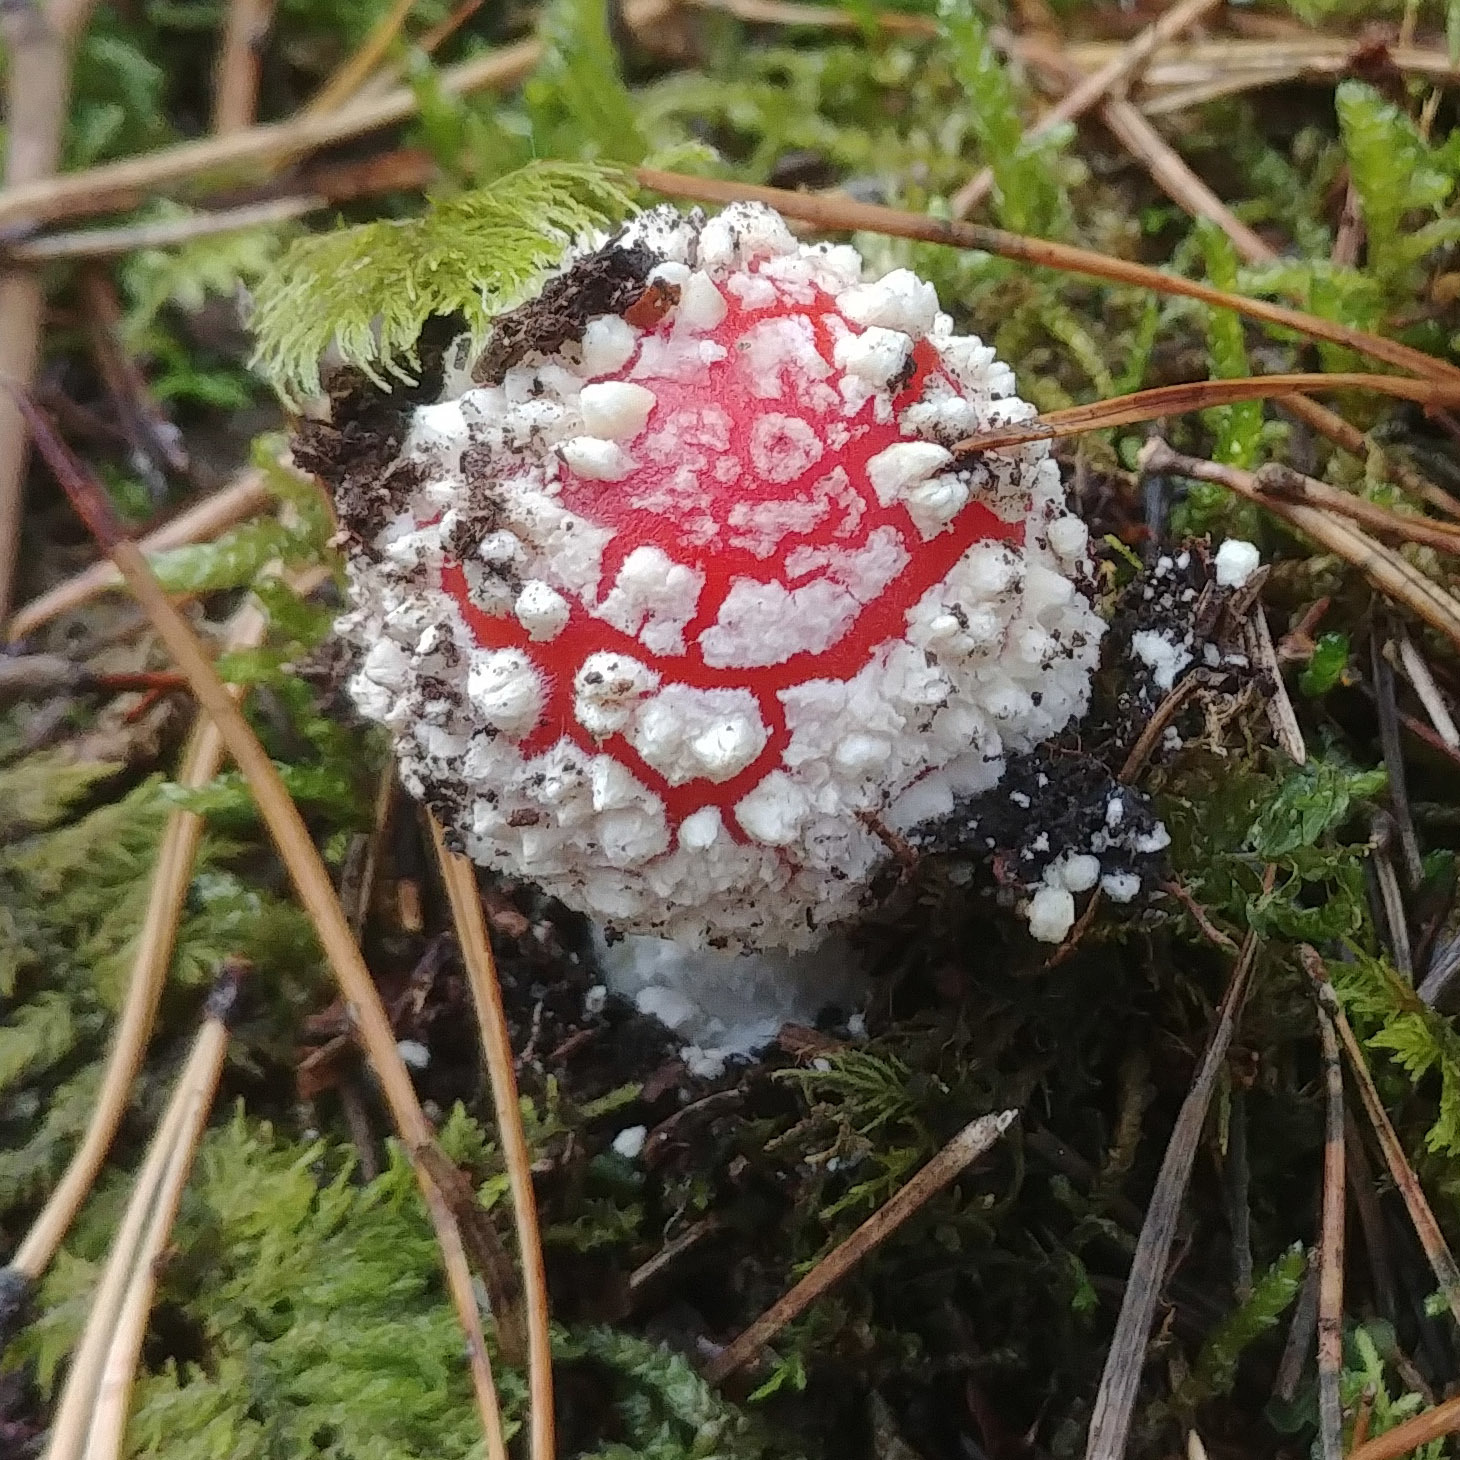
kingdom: Fungi
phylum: Basidiomycota
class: Agaricomycetes
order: Agaricales
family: Amanitaceae
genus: Amanita
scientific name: Amanita muscaria
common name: Fly agaric
